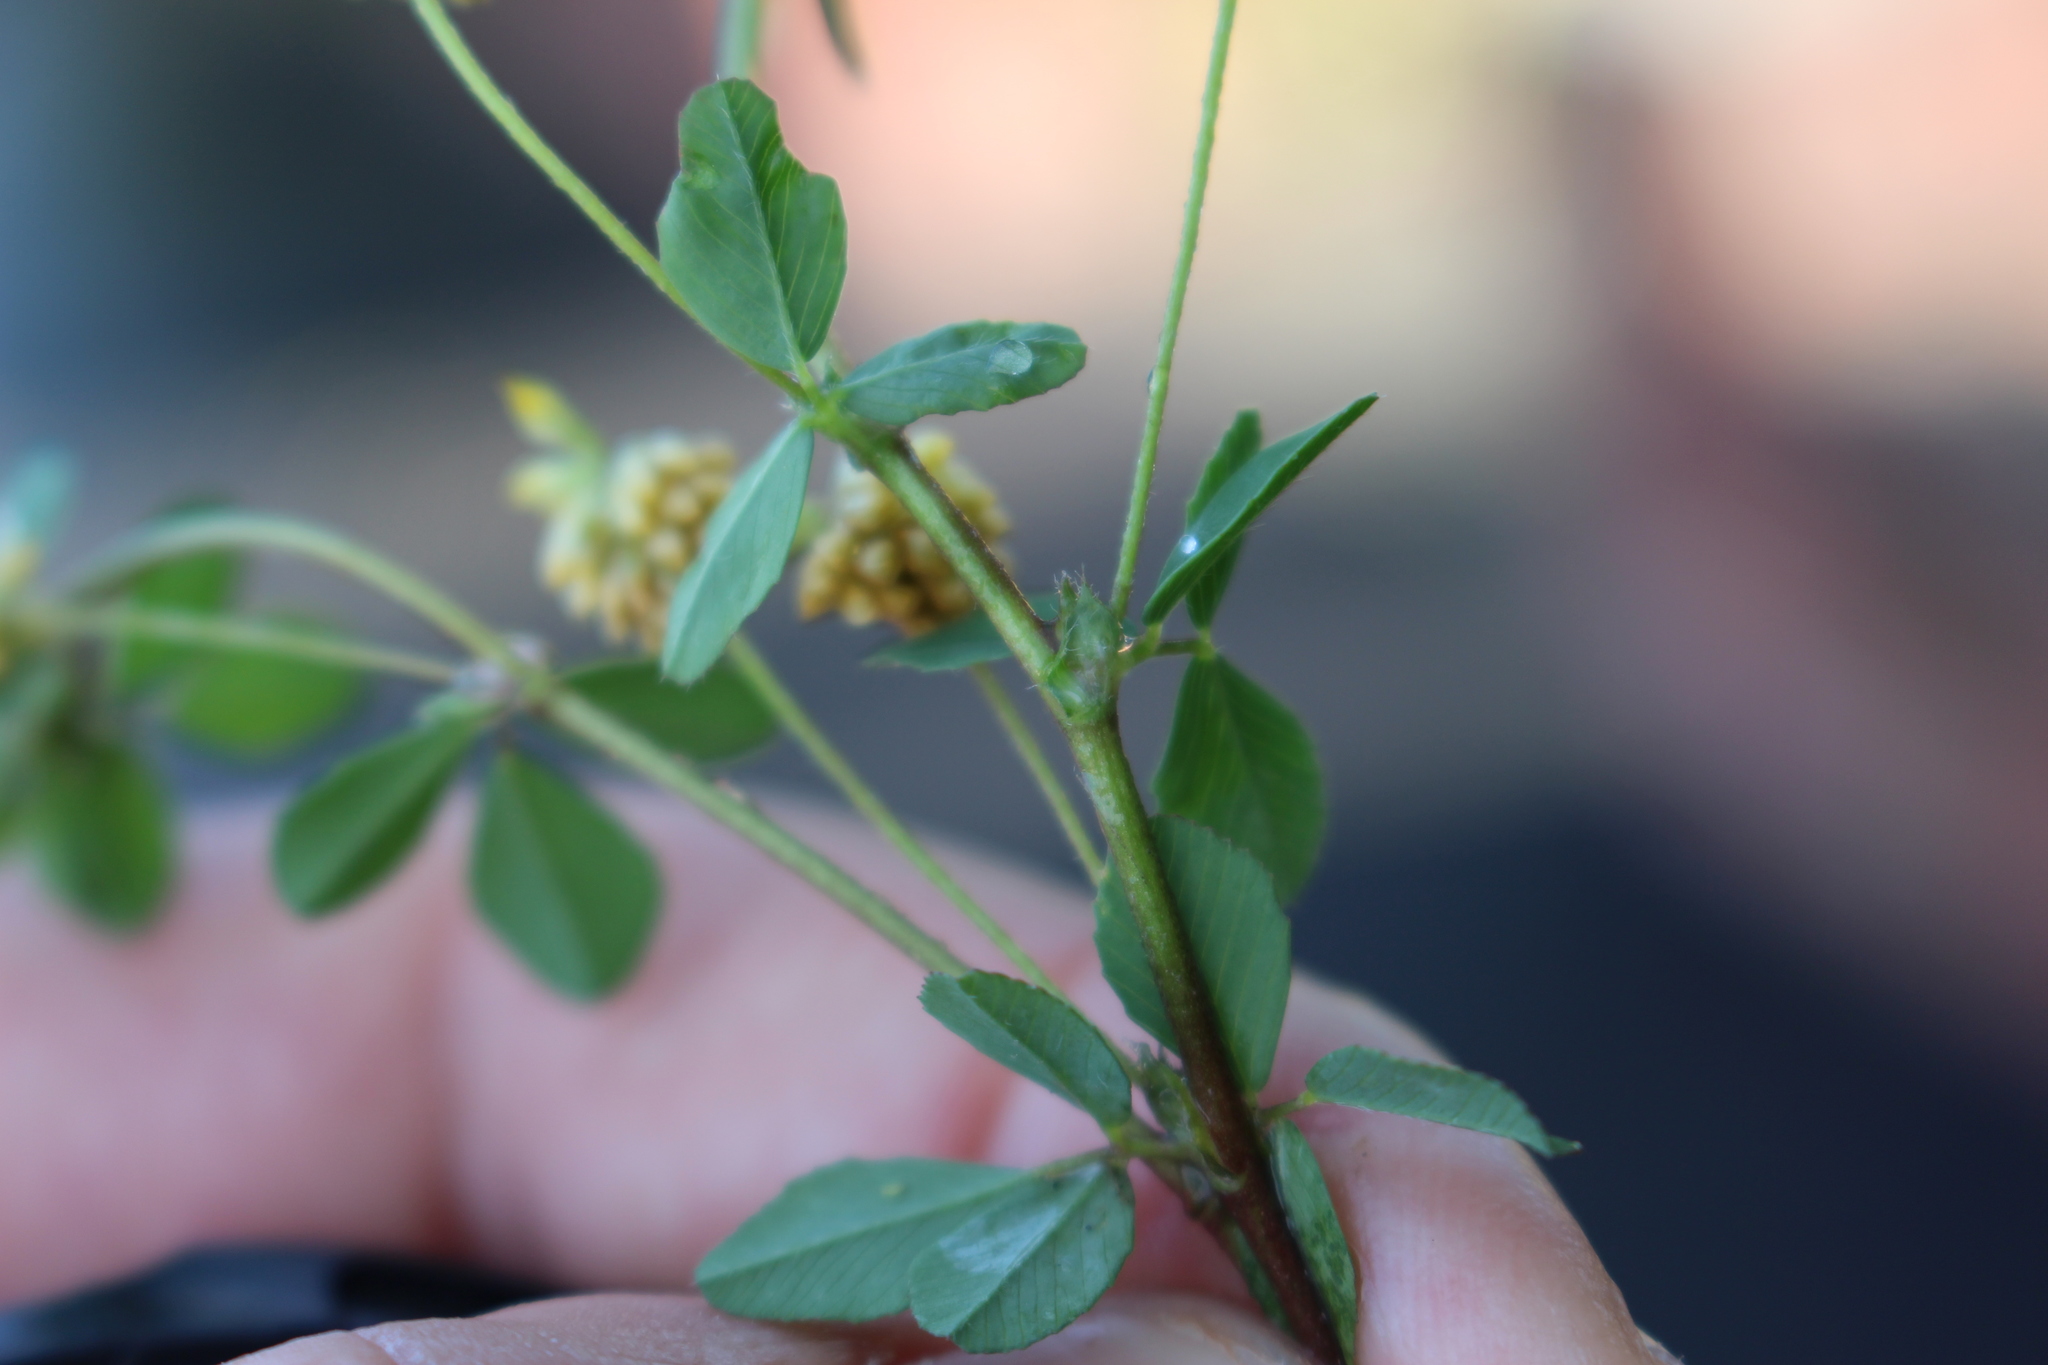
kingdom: Plantae
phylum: Tracheophyta
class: Magnoliopsida
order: Fabales
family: Fabaceae
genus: Trifolium
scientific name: Trifolium dubium
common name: Suckling clover
